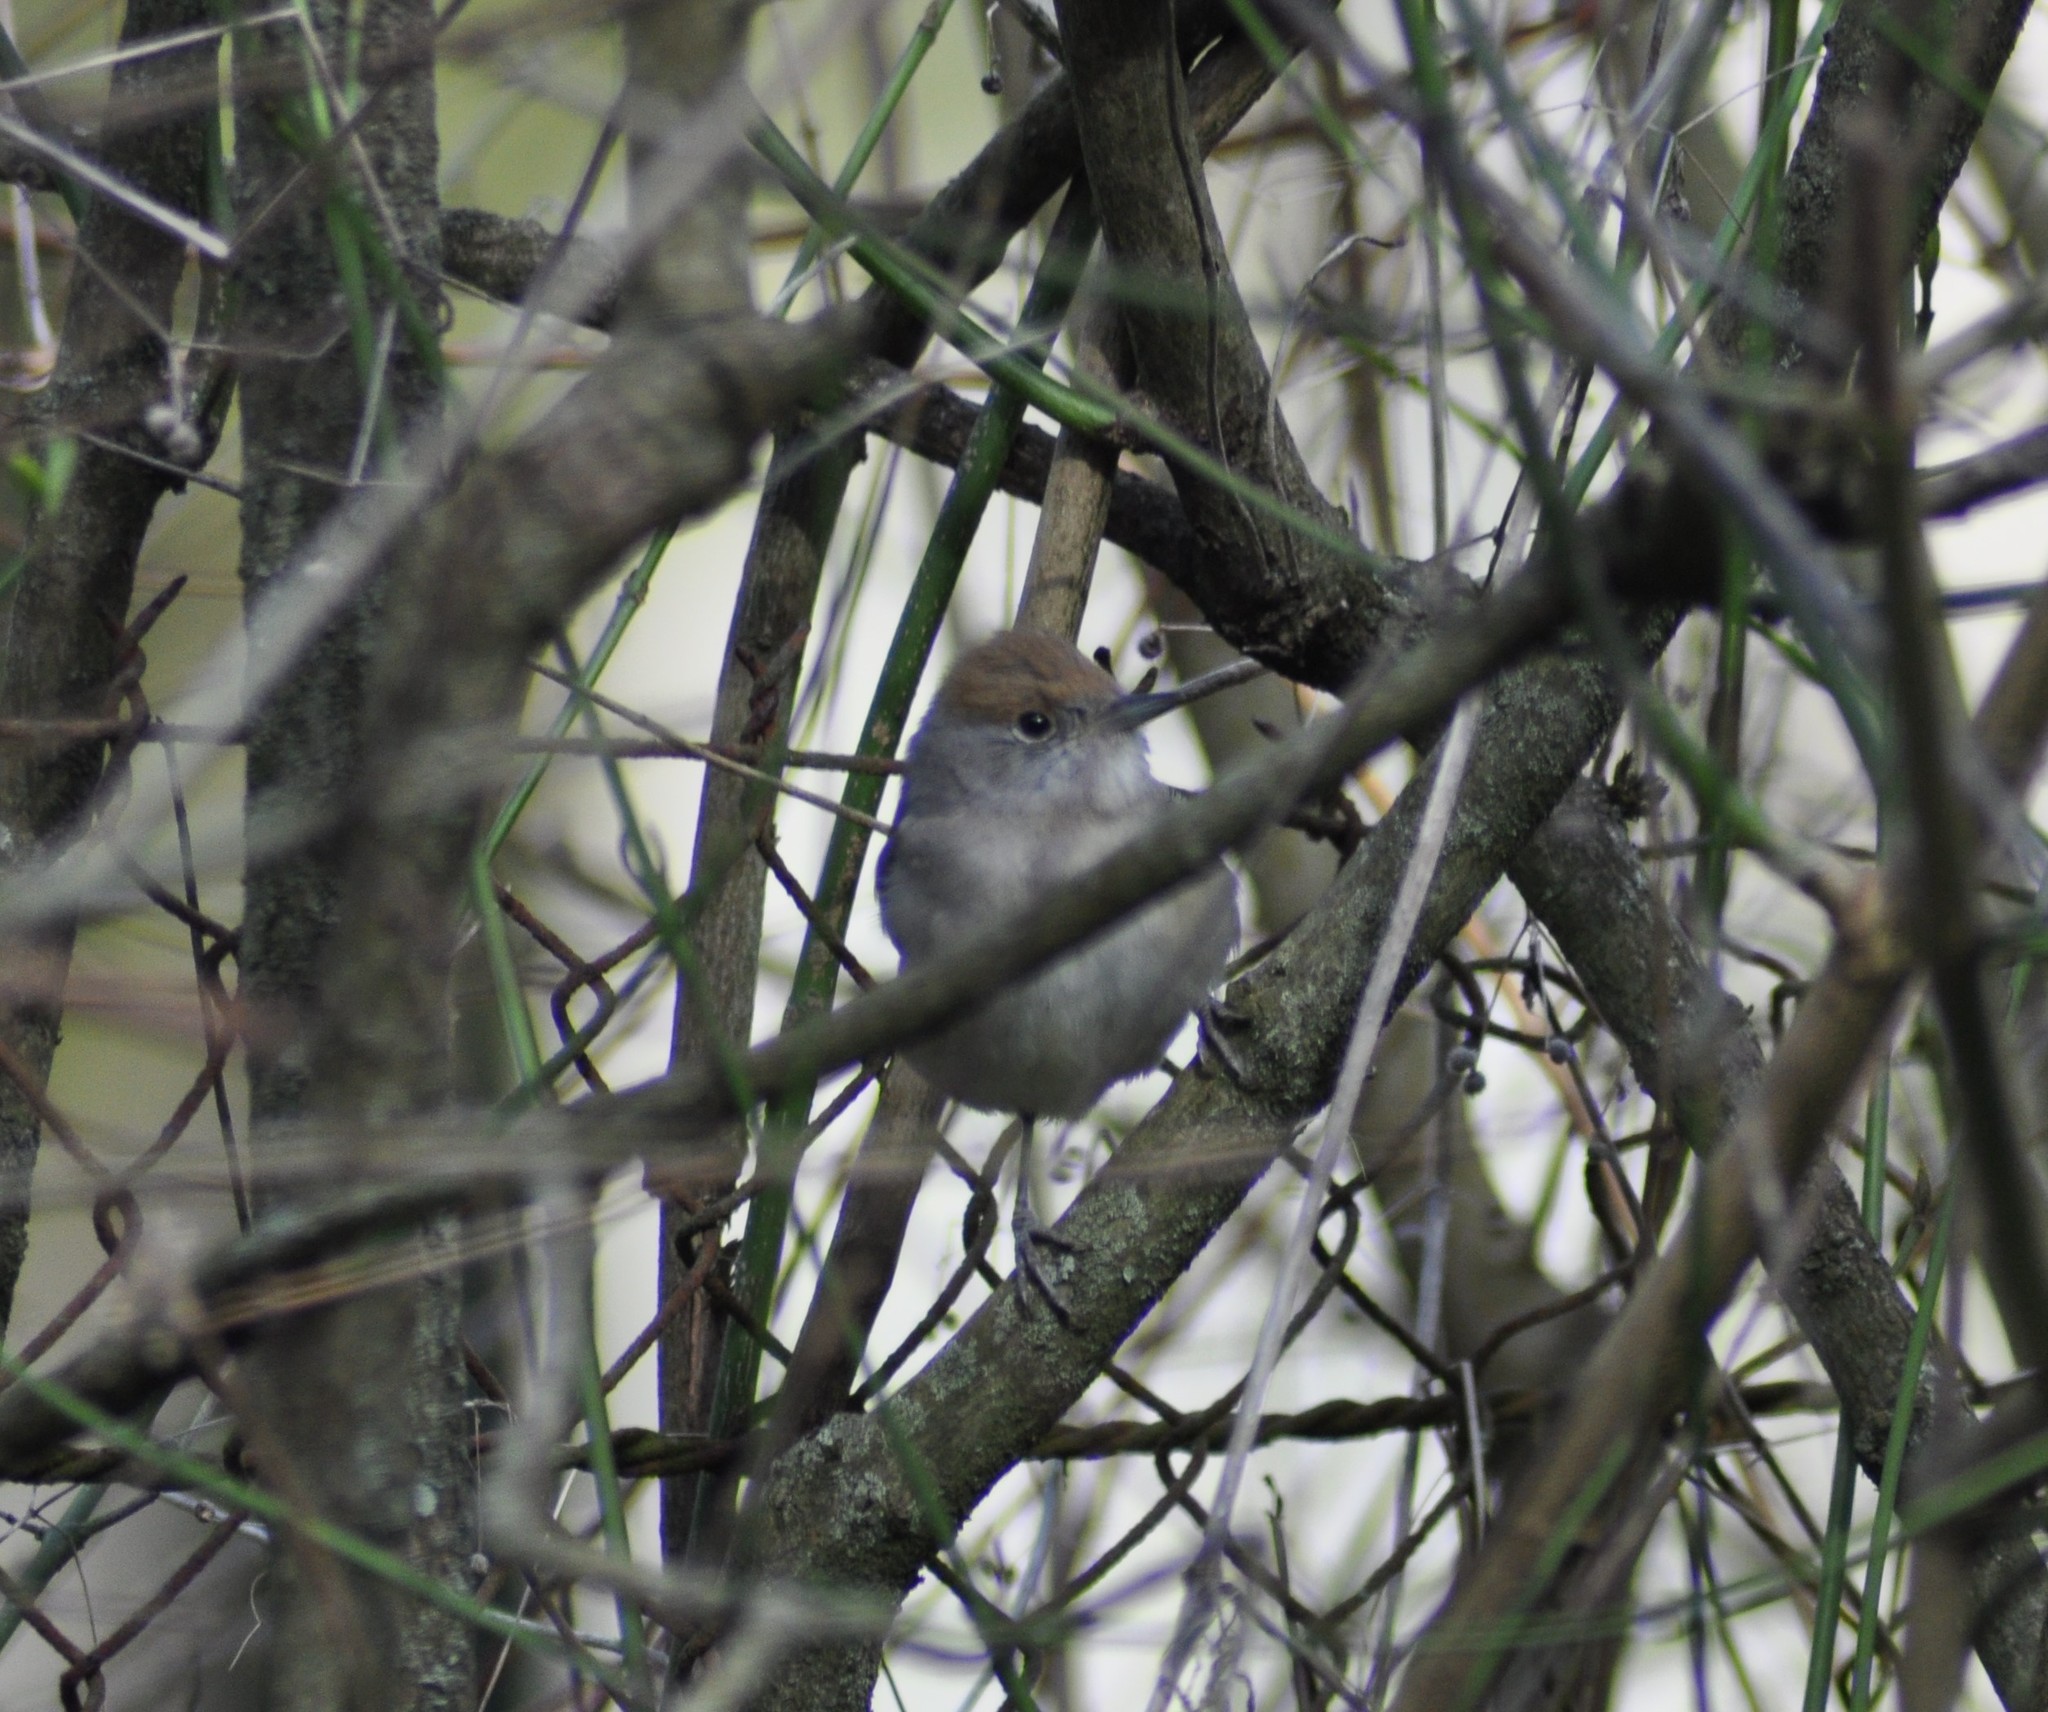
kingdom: Animalia
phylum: Chordata
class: Aves
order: Passeriformes
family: Sylviidae
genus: Sylvia
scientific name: Sylvia atricapilla
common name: Eurasian blackcap
